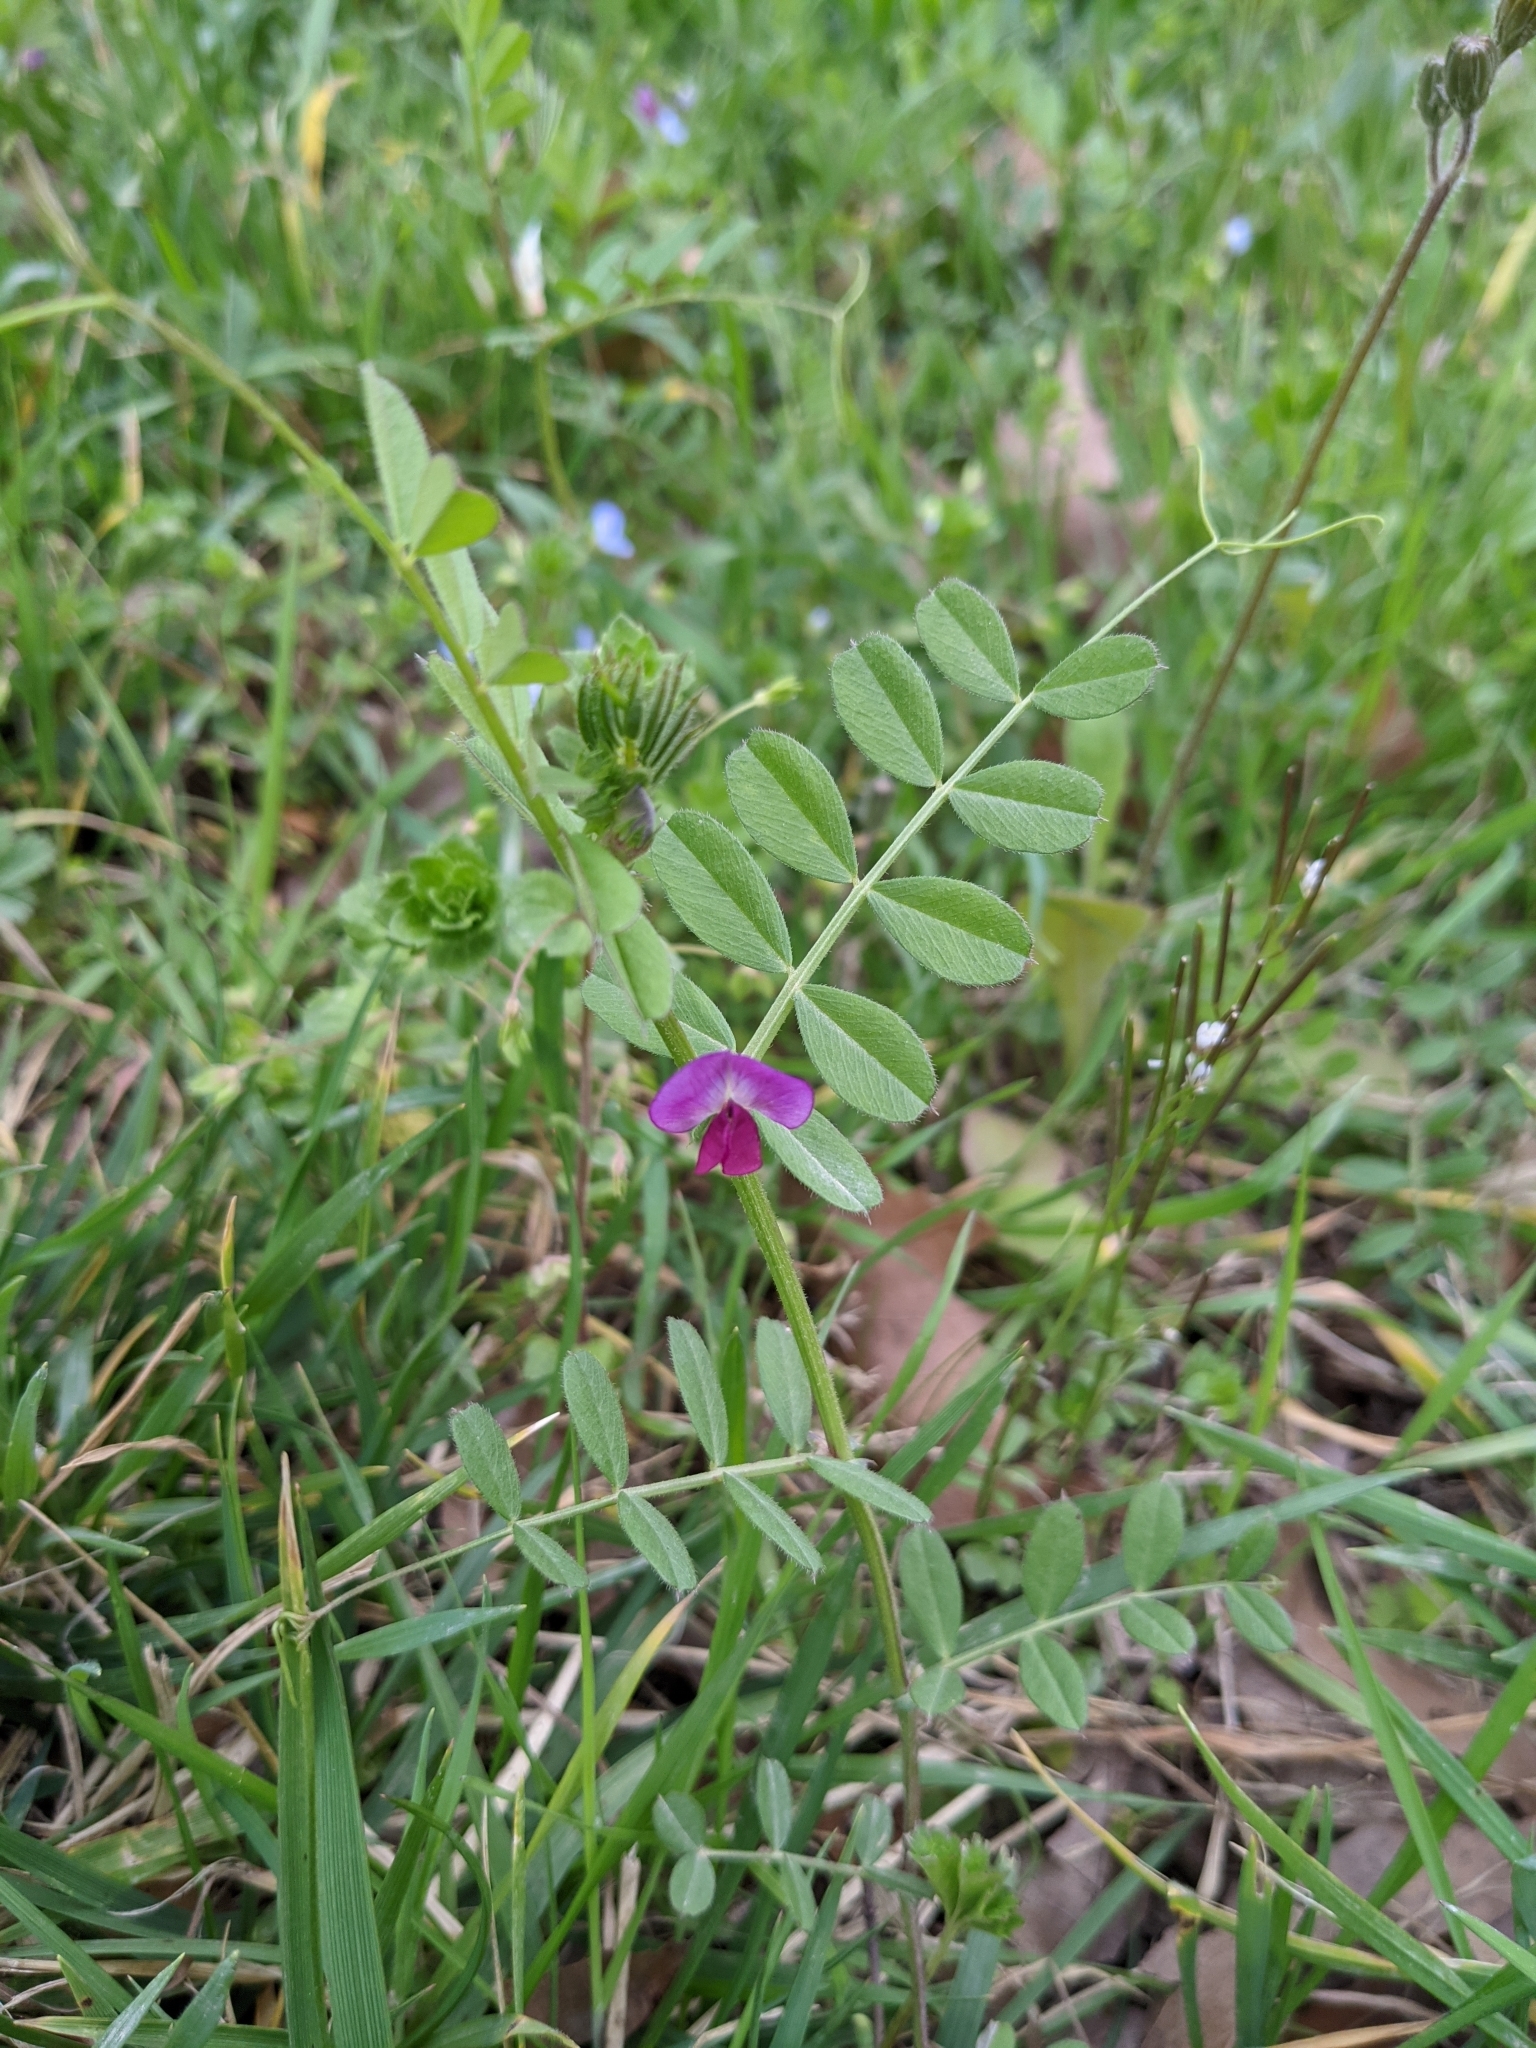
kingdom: Plantae
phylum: Tracheophyta
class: Magnoliopsida
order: Fabales
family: Fabaceae
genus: Vicia
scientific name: Vicia sativa
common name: Garden vetch
